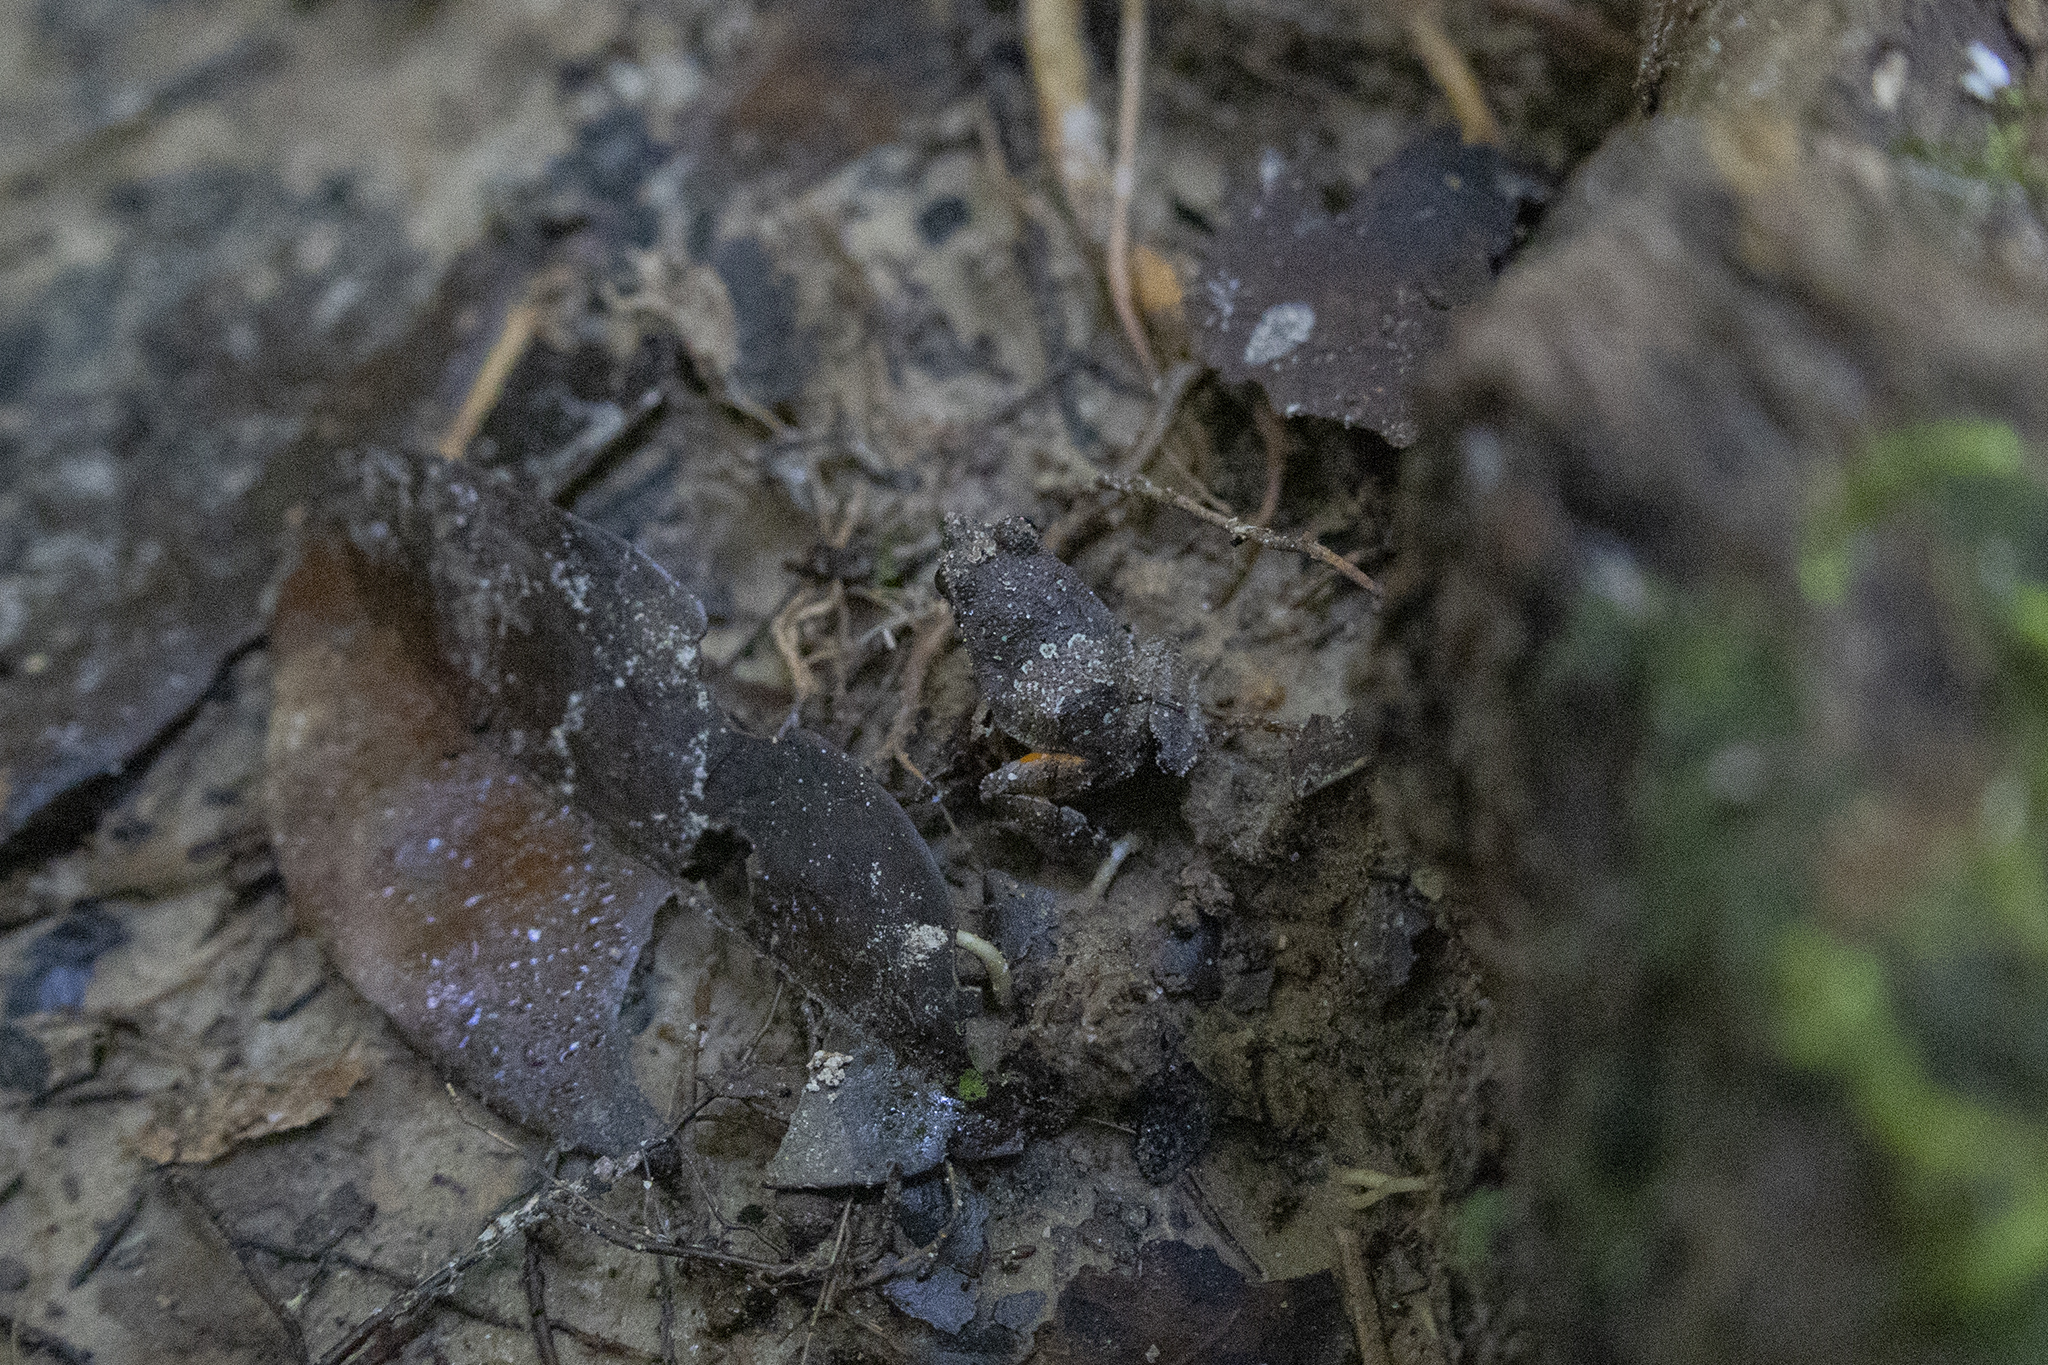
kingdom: Animalia
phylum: Chordata
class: Amphibia
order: Anura
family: Leptodactylidae
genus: Edalorhina
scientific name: Edalorhina perezi
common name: Perez’s snouted frog
